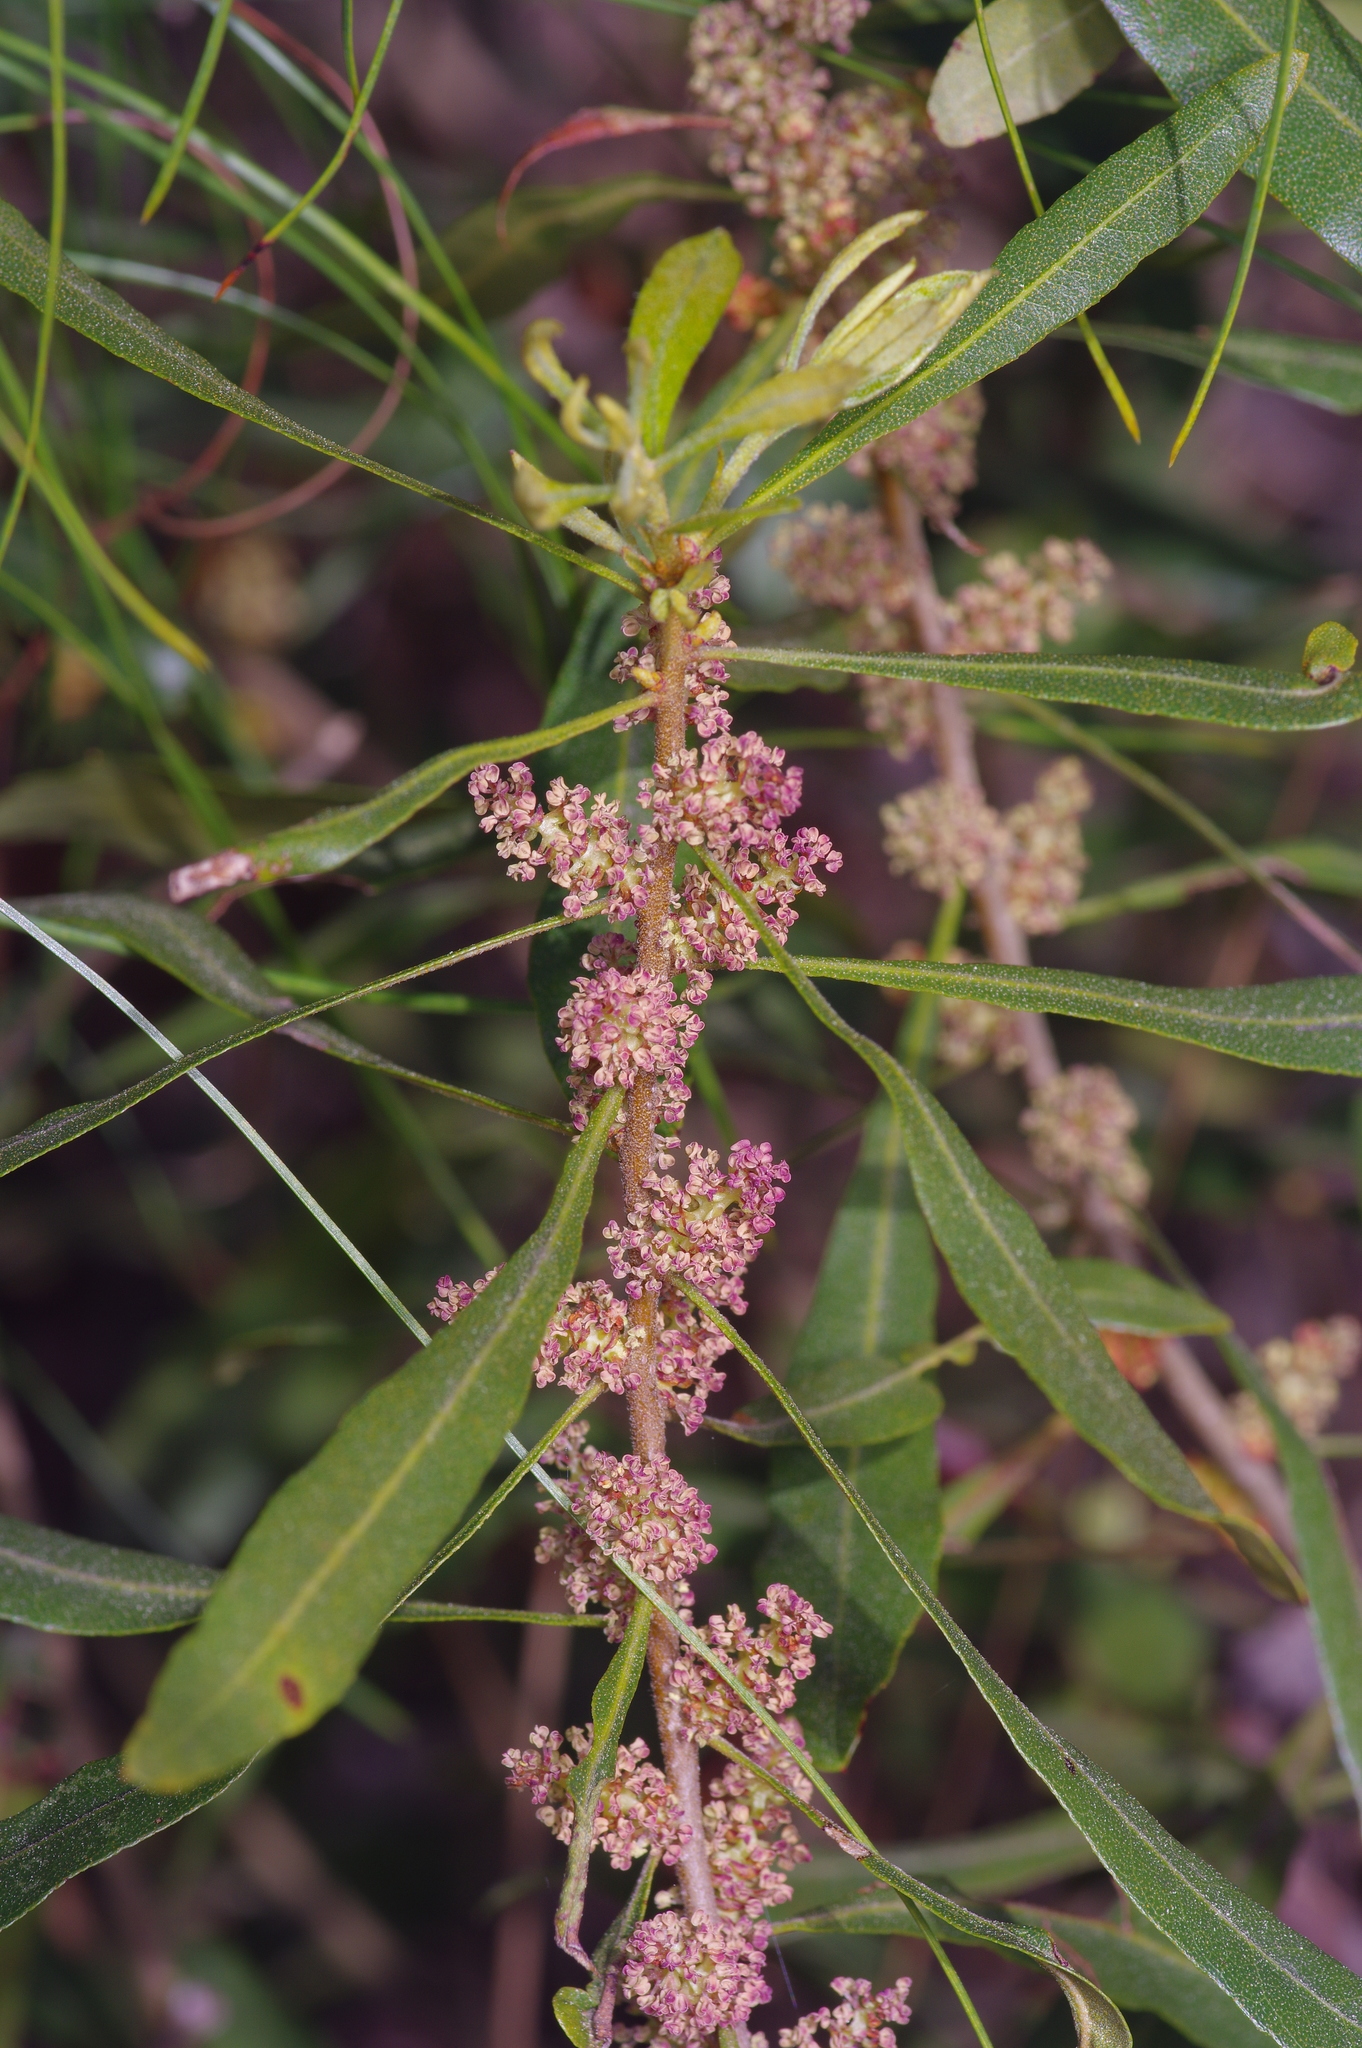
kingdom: Plantae
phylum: Tracheophyta
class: Magnoliopsida
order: Fagales
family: Myricaceae
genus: Morella
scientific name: Morella cerifera
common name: Wax myrtle
